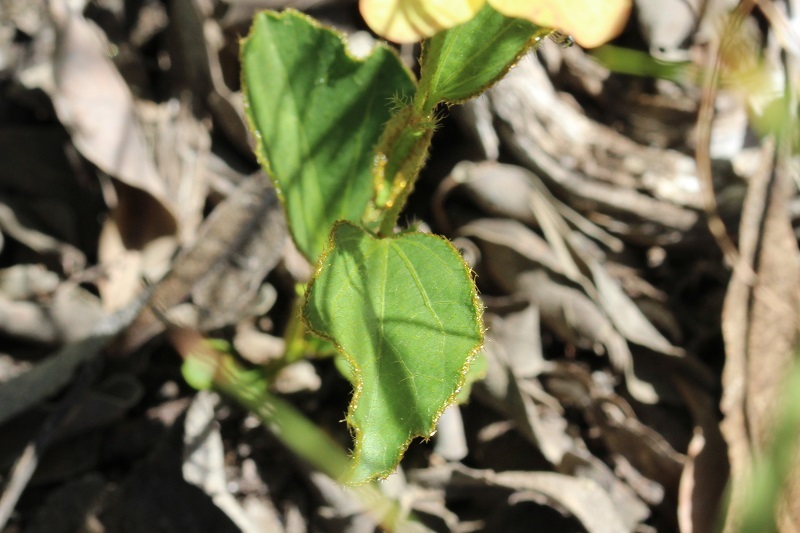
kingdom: Plantae
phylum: Tracheophyta
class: Magnoliopsida
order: Malvales
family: Malvaceae
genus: Hibiscus
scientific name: Hibiscus aethiopicus
